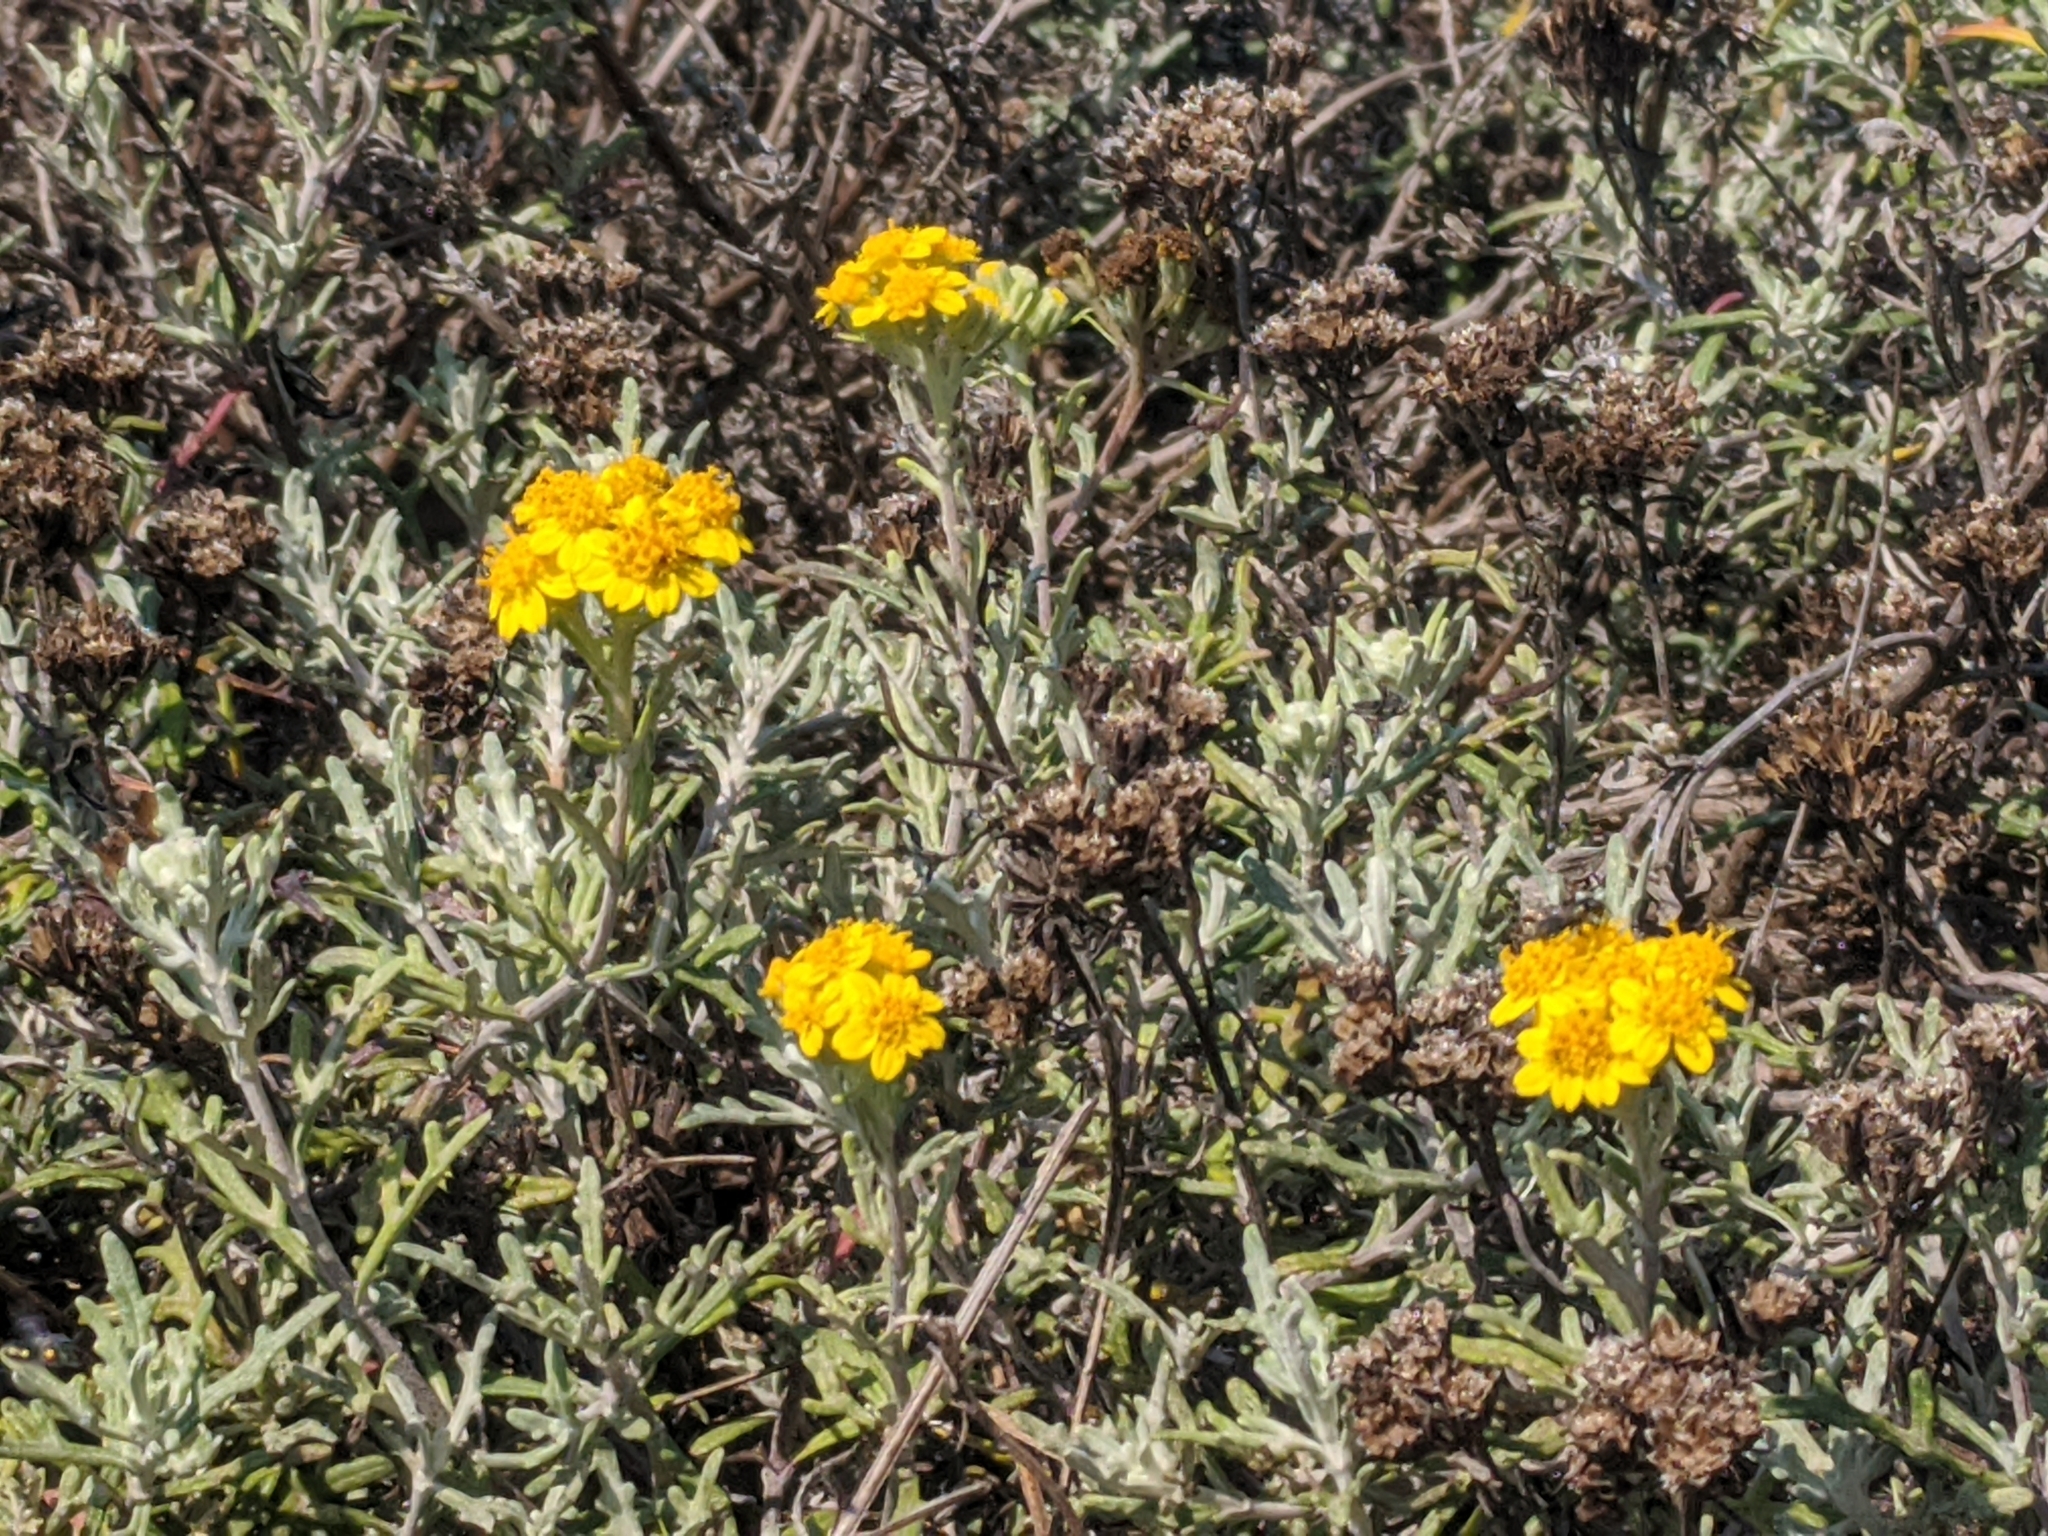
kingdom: Plantae
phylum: Tracheophyta
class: Magnoliopsida
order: Asterales
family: Asteraceae
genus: Eriophyllum
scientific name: Eriophyllum staechadifolium
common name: Lizardtail
